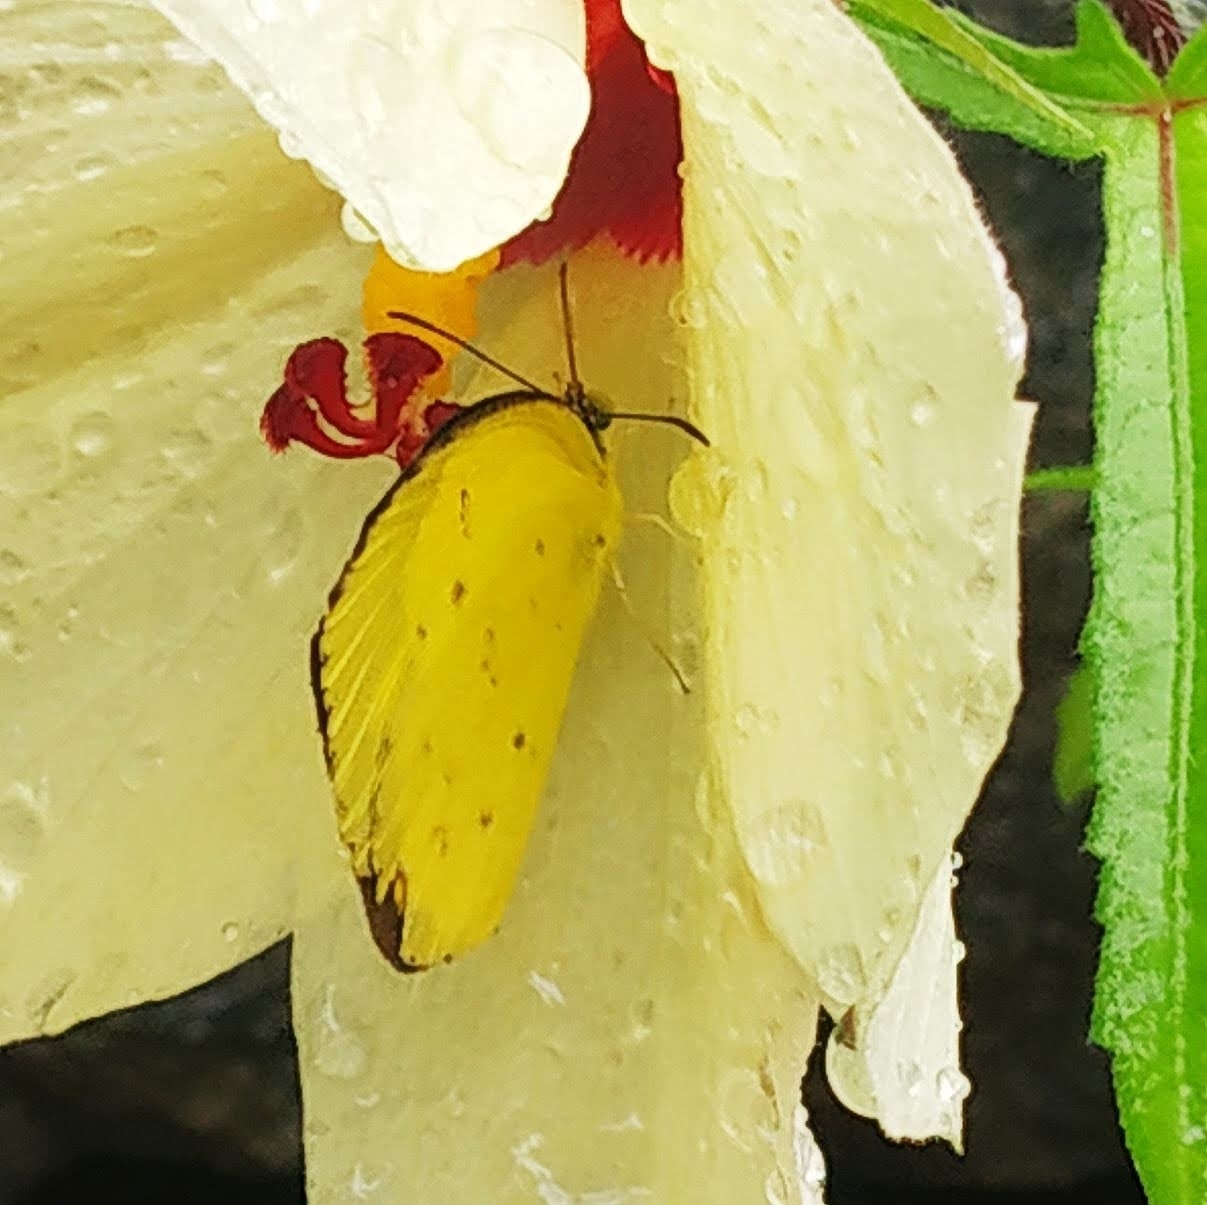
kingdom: Animalia
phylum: Arthropoda
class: Insecta
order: Lepidoptera
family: Pieridae
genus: Eurema
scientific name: Eurema hecabe
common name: Pale grass yellow
